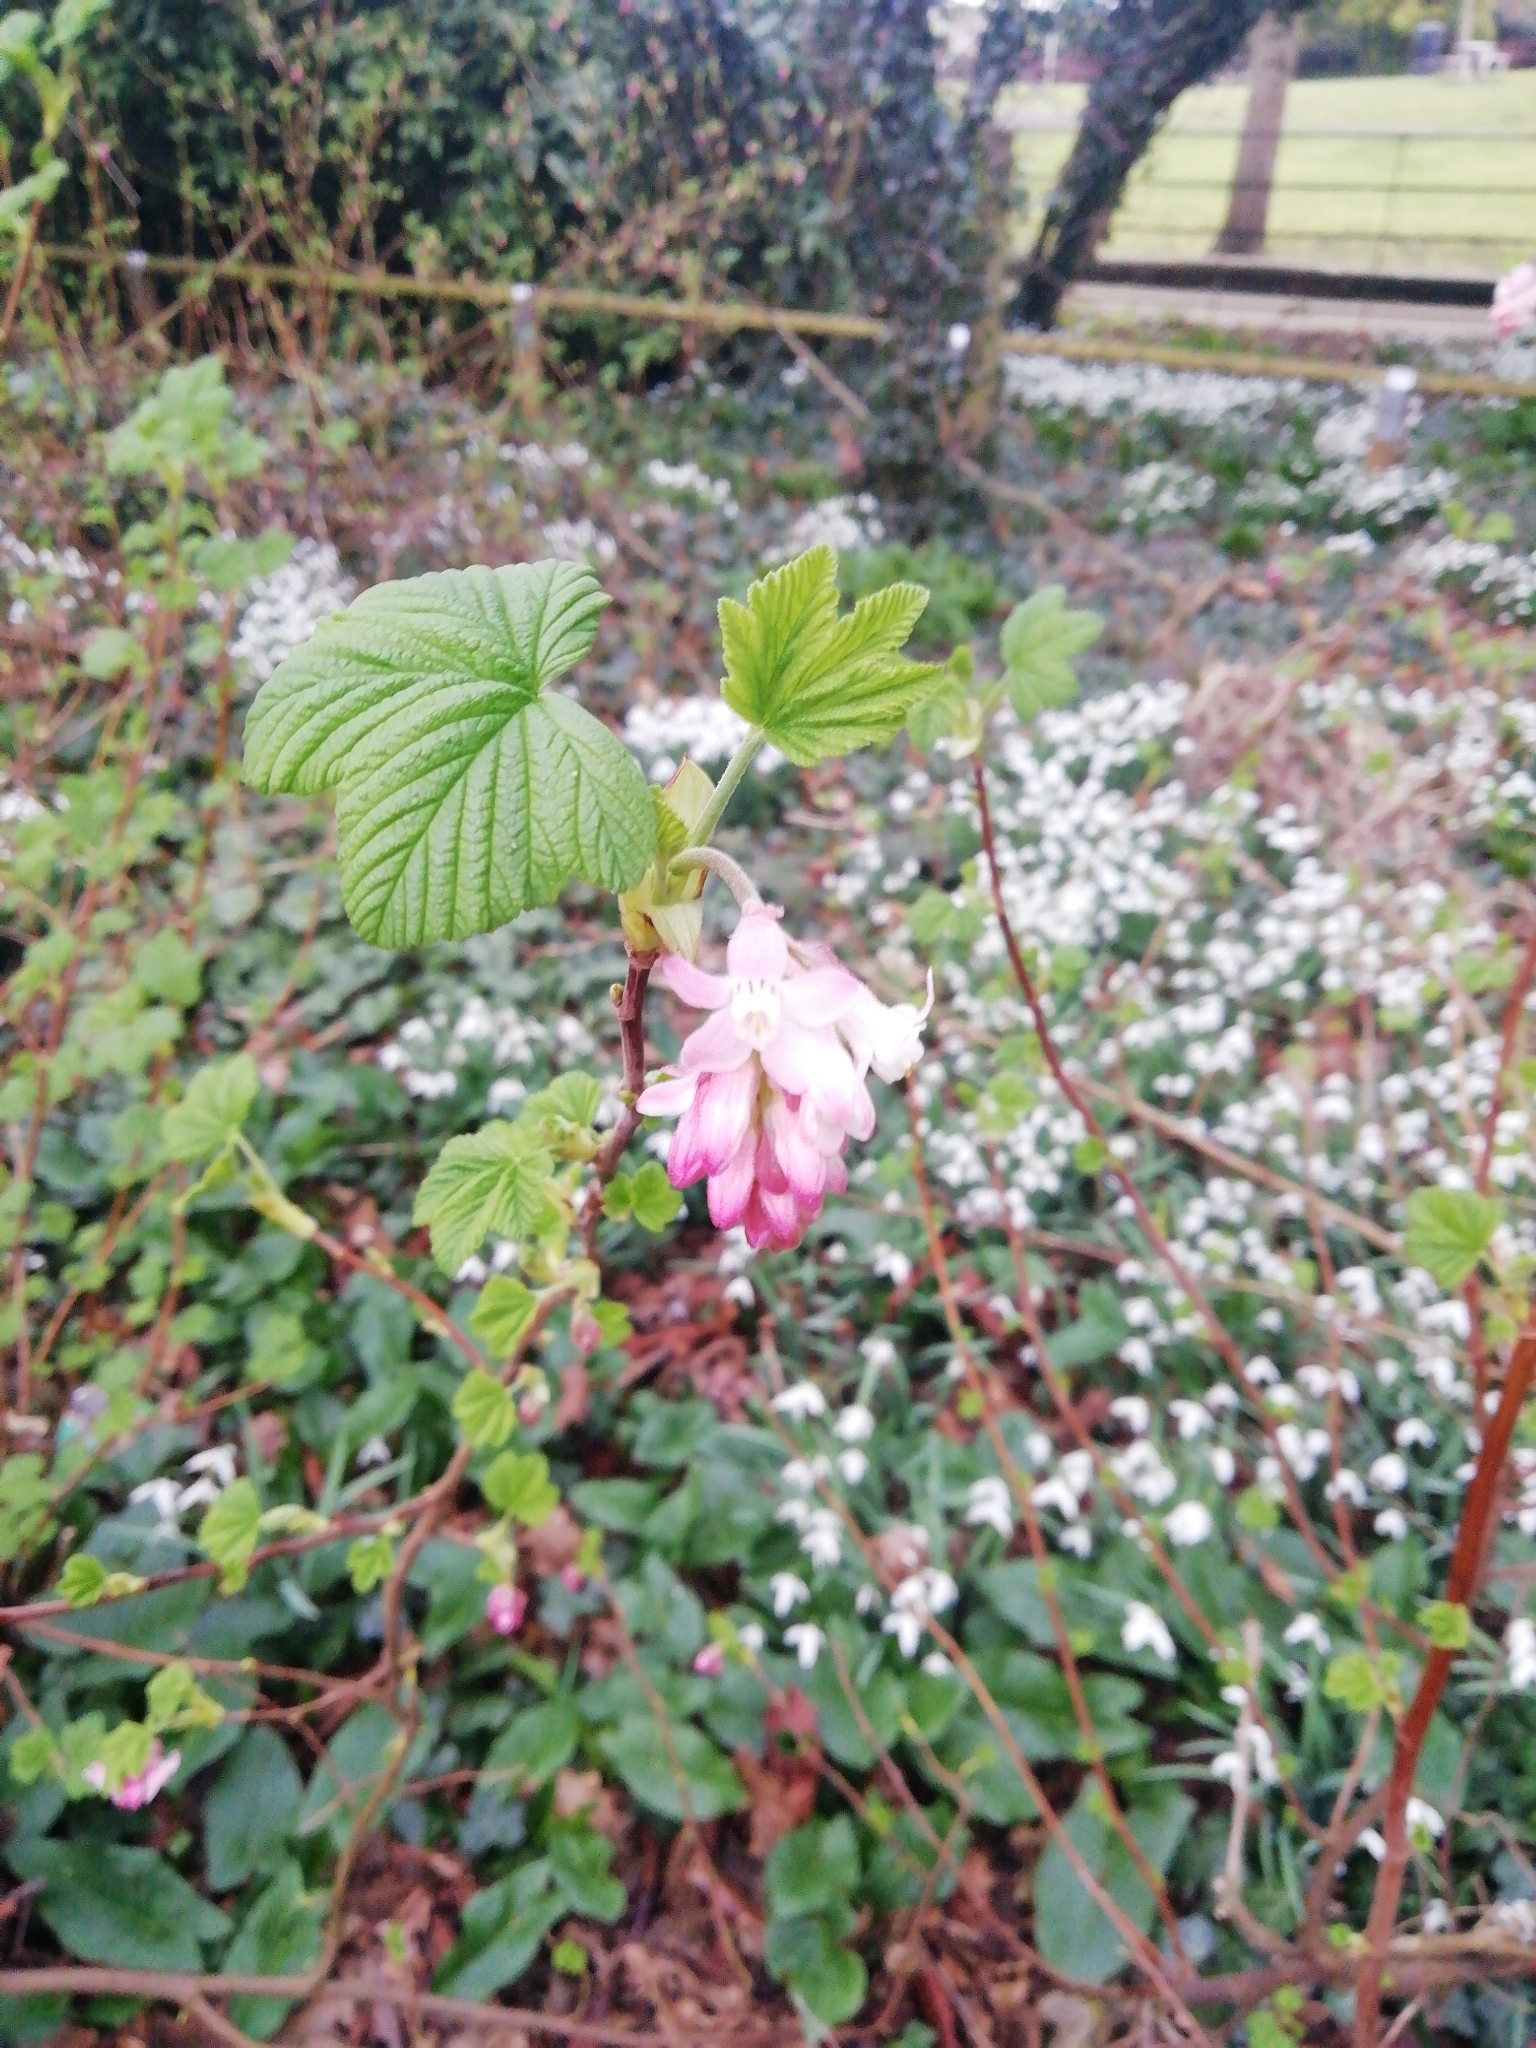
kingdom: Plantae
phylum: Tracheophyta
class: Magnoliopsida
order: Saxifragales
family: Grossulariaceae
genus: Ribes
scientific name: Ribes sanguineum
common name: Flowering currant
